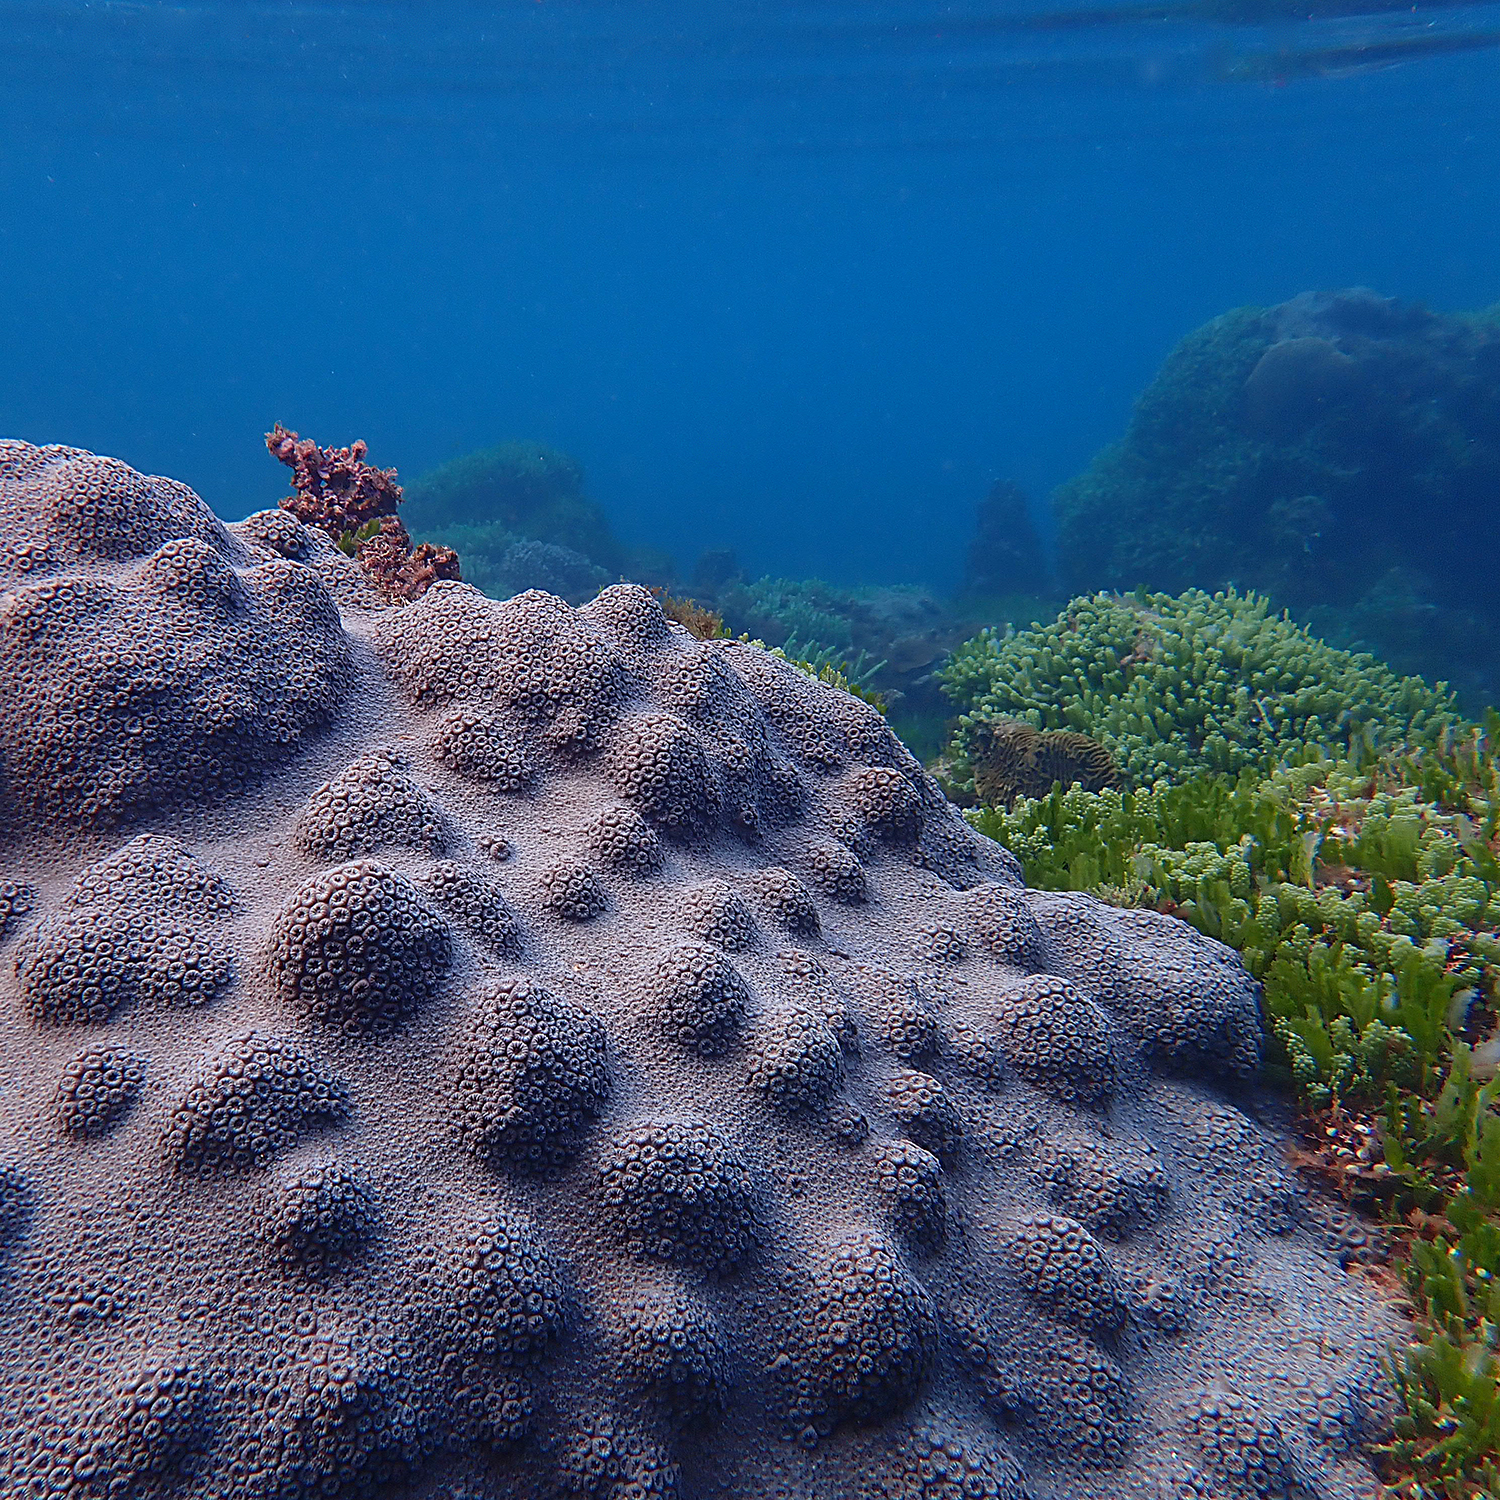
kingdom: Animalia
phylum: Cnidaria
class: Anthozoa
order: Scleractinia
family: Merulinidae
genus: Astrea
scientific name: Astrea curta
